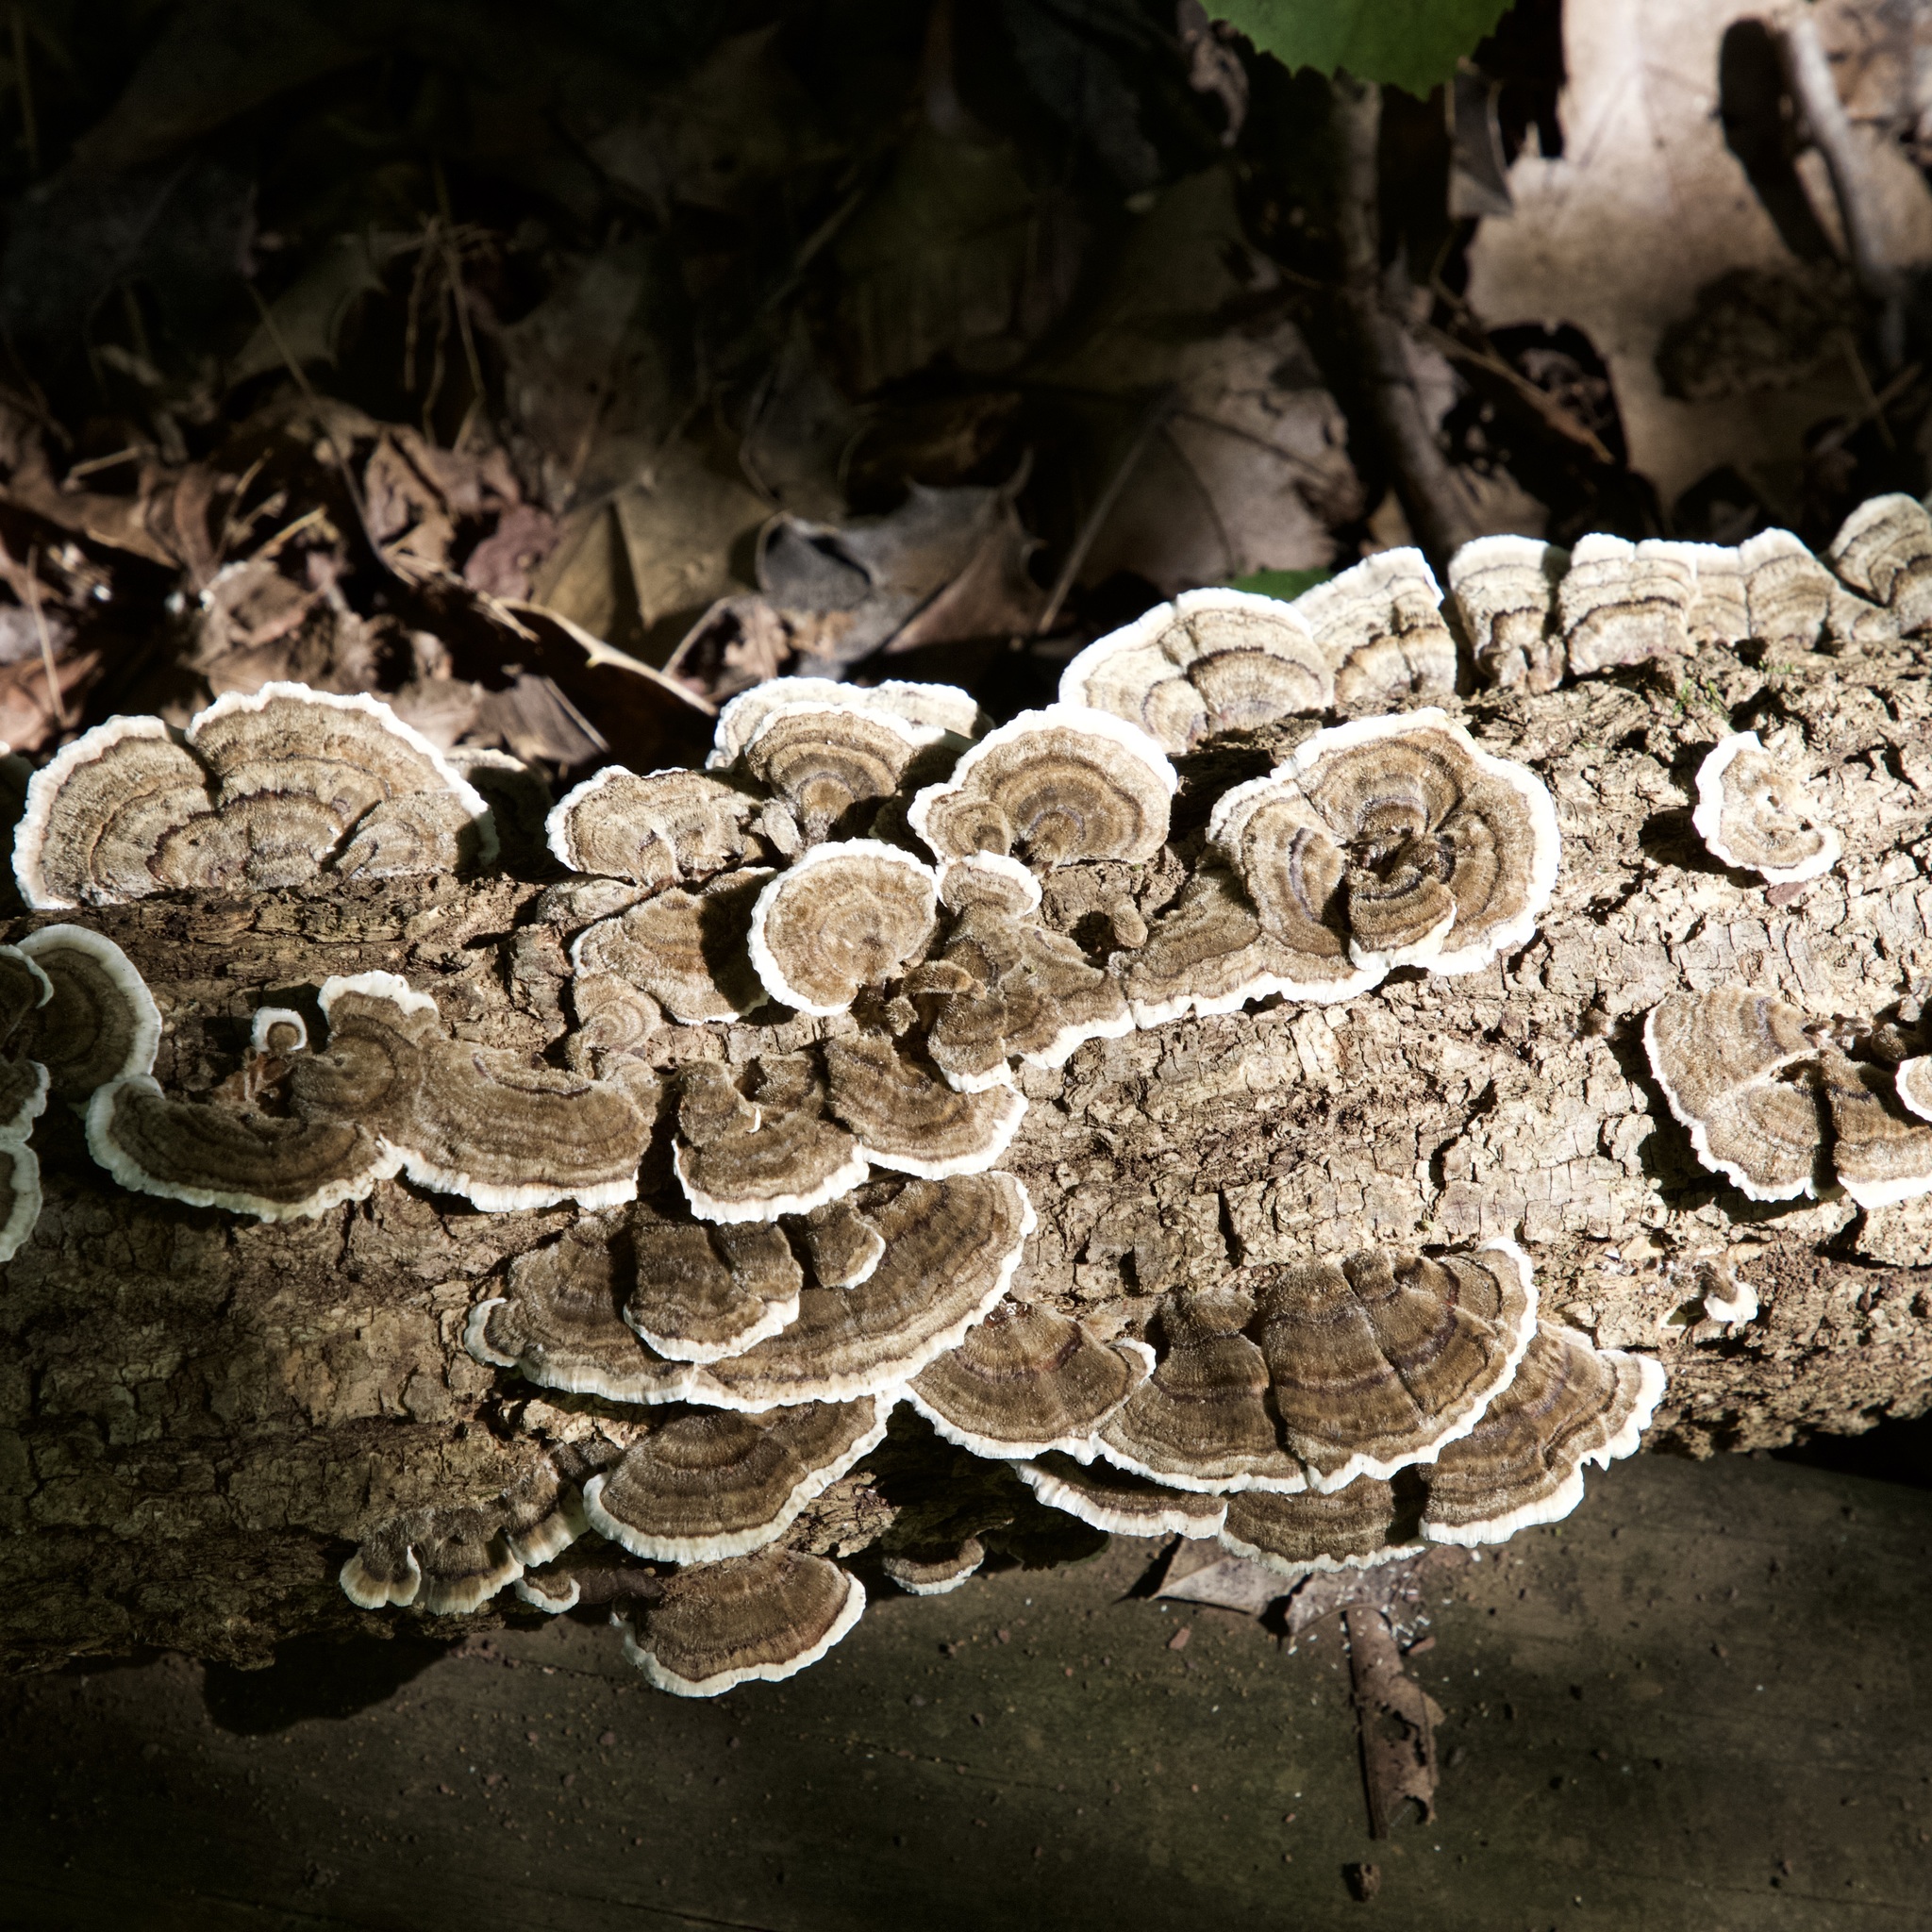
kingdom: Fungi
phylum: Basidiomycota
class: Agaricomycetes
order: Polyporales
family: Polyporaceae
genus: Trametes
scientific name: Trametes versicolor
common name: Turkeytail
